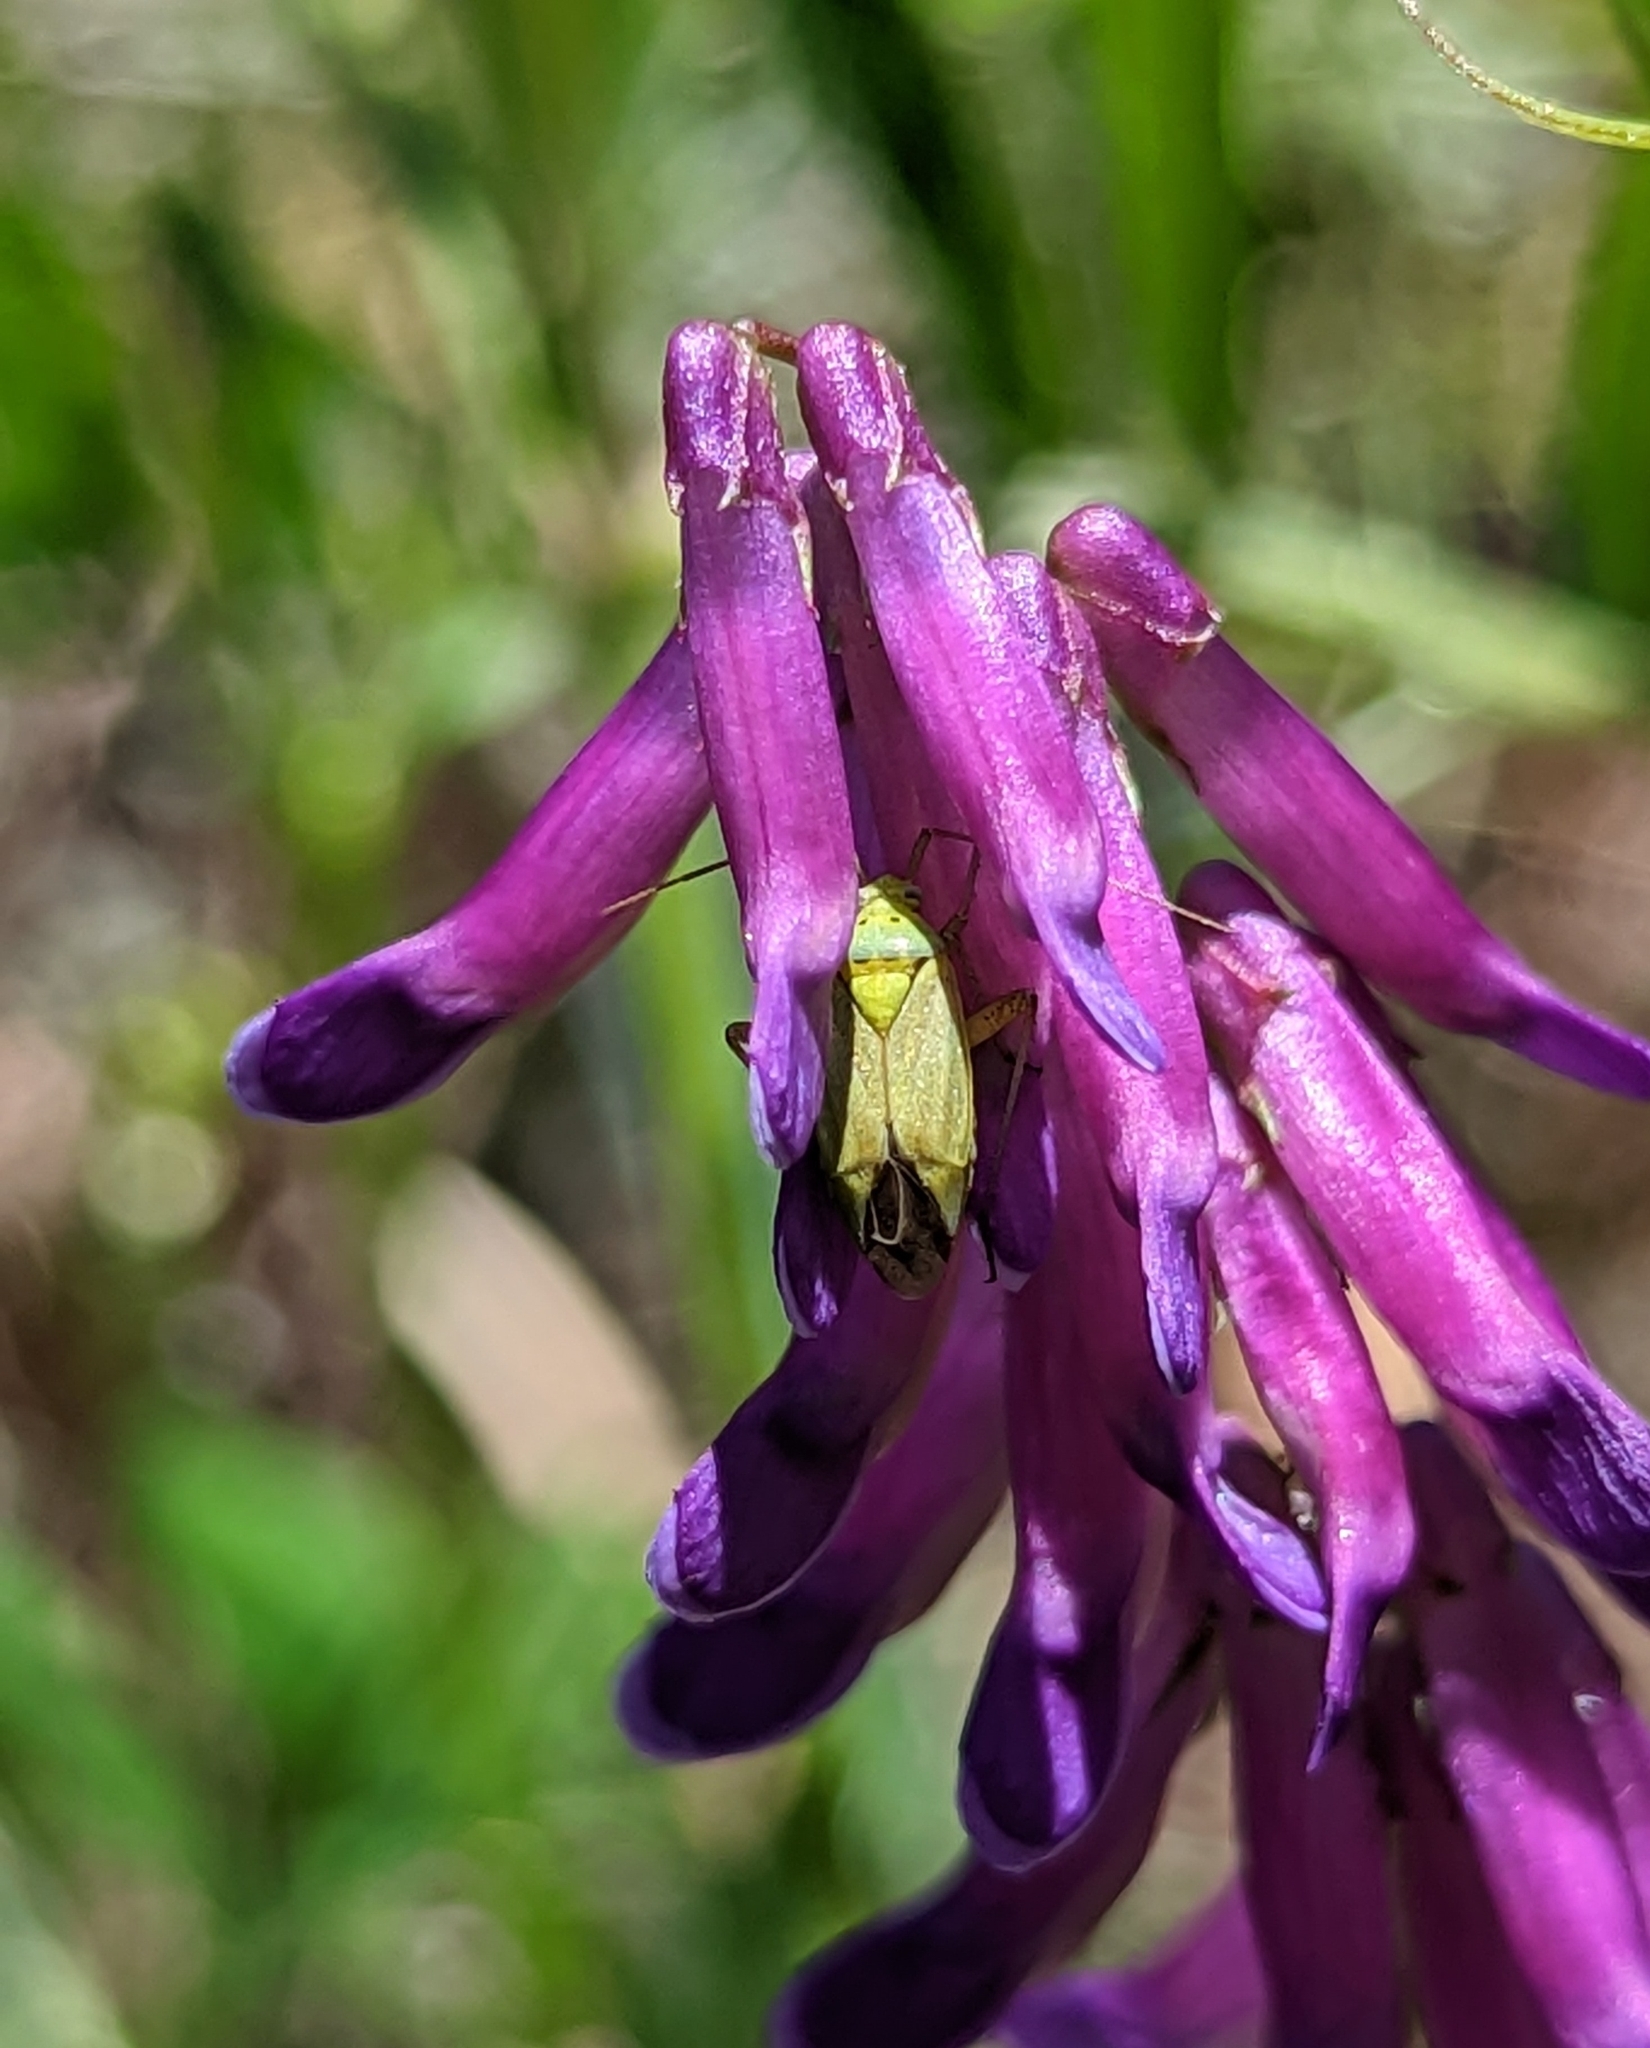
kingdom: Animalia
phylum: Arthropoda
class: Insecta
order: Hemiptera
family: Miridae
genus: Closterotomus
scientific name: Closterotomus norvegicus
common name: Plant bug
